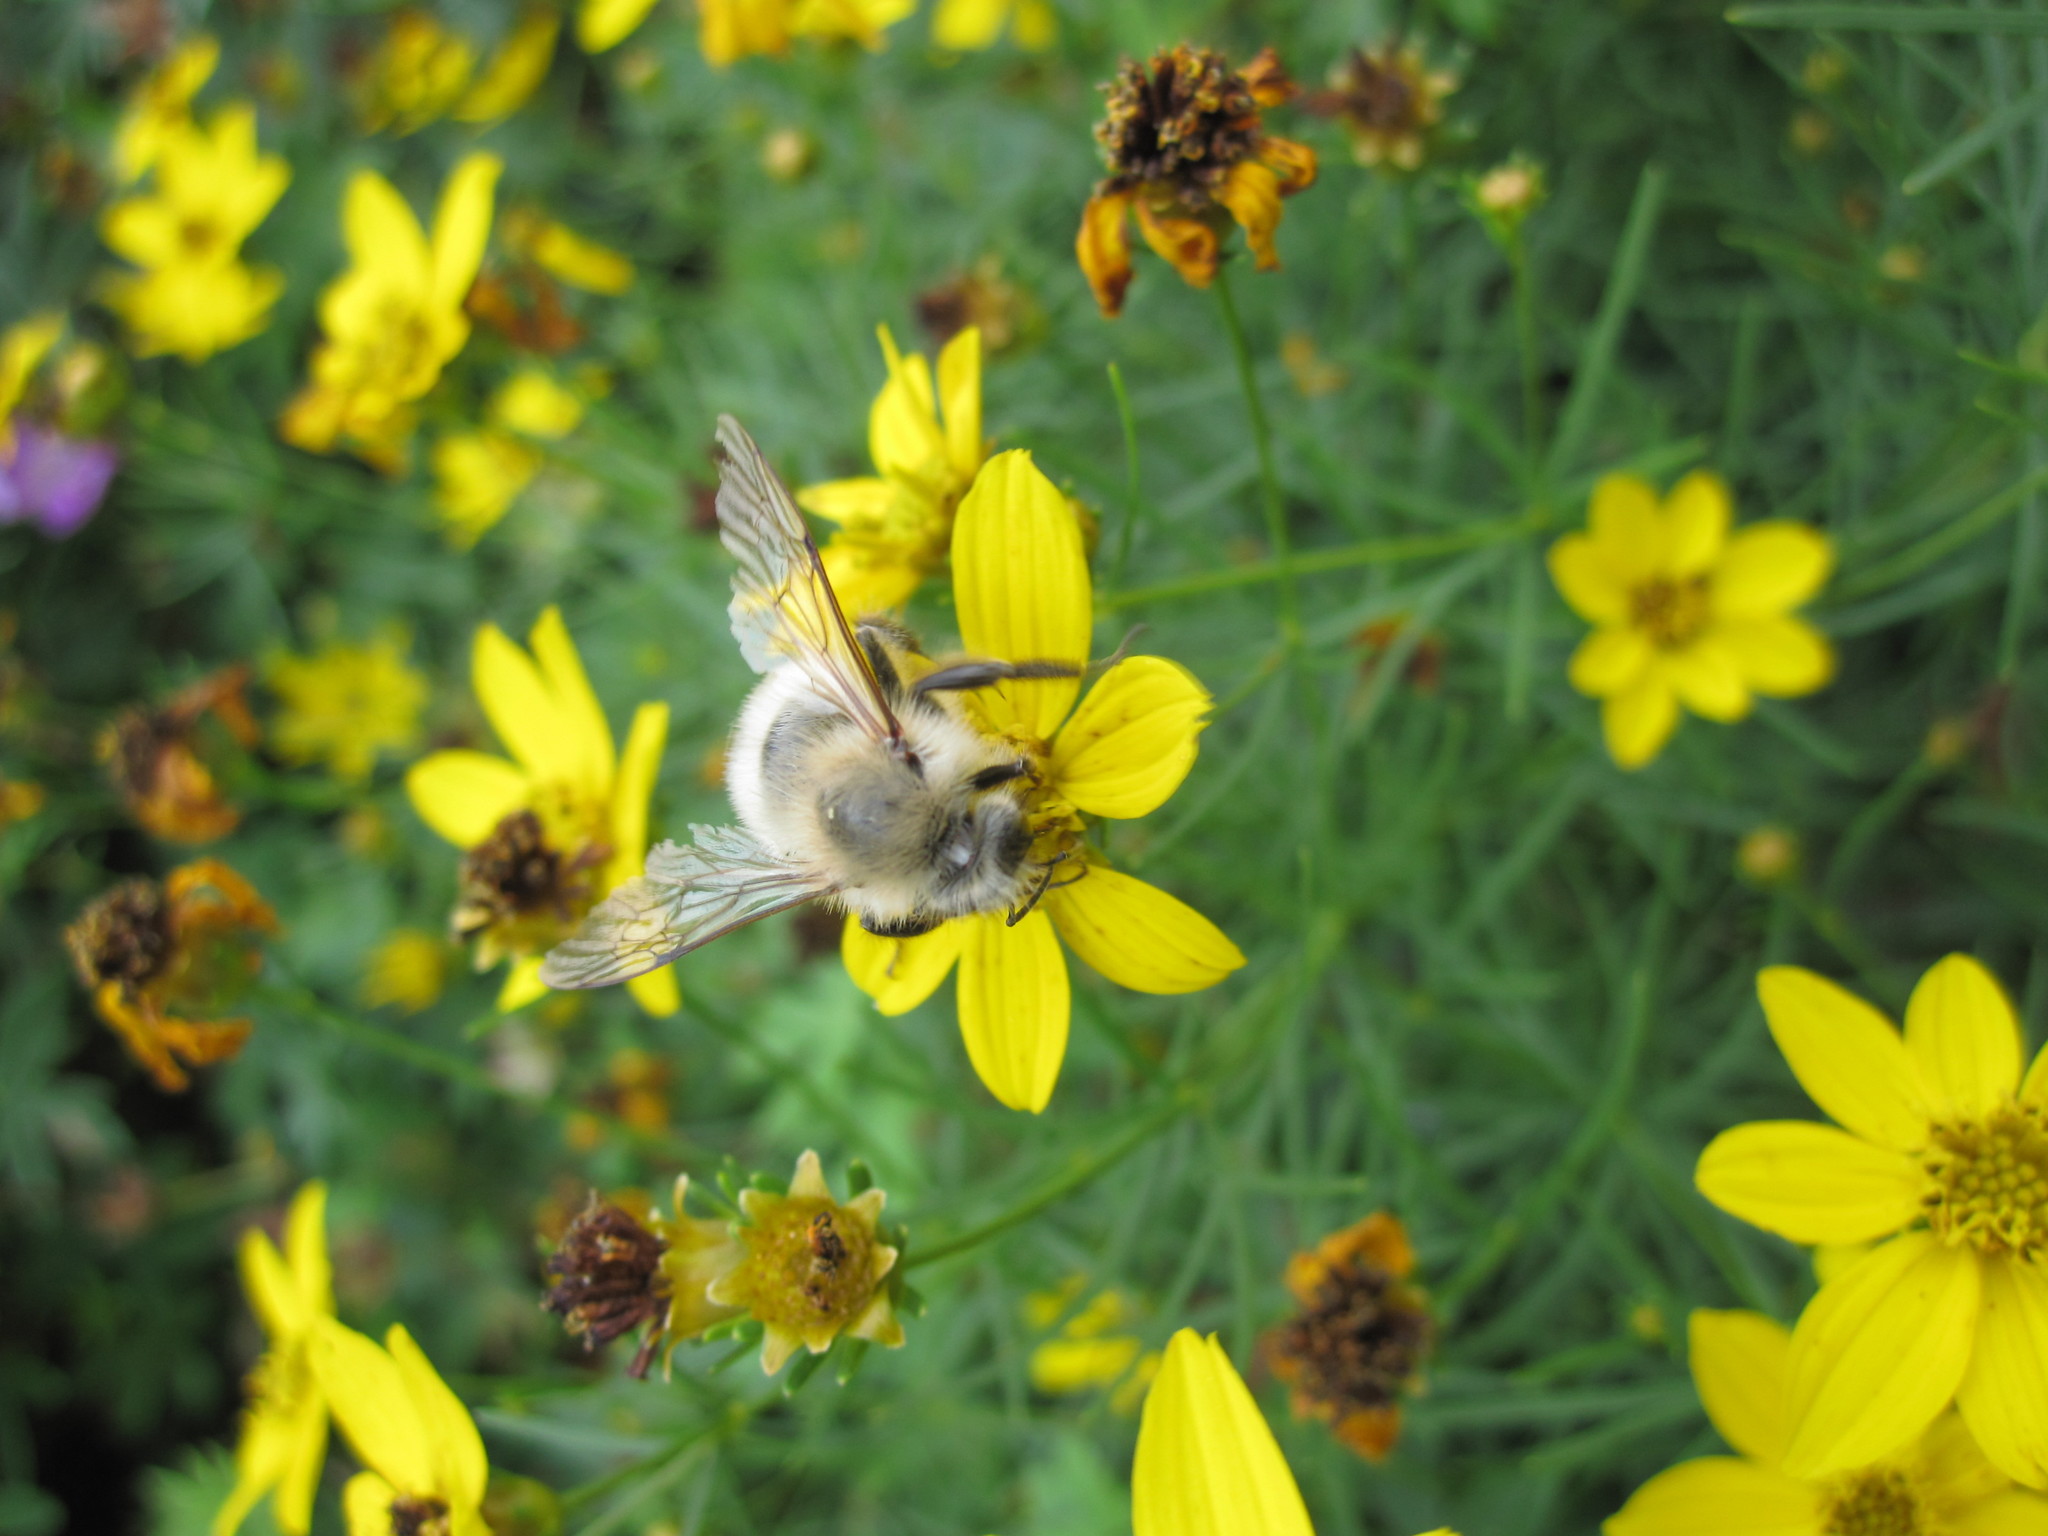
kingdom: Animalia
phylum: Arthropoda
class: Insecta
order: Hymenoptera
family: Apidae
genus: Bombus
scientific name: Bombus perplexus
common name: Confusing bumble bee
